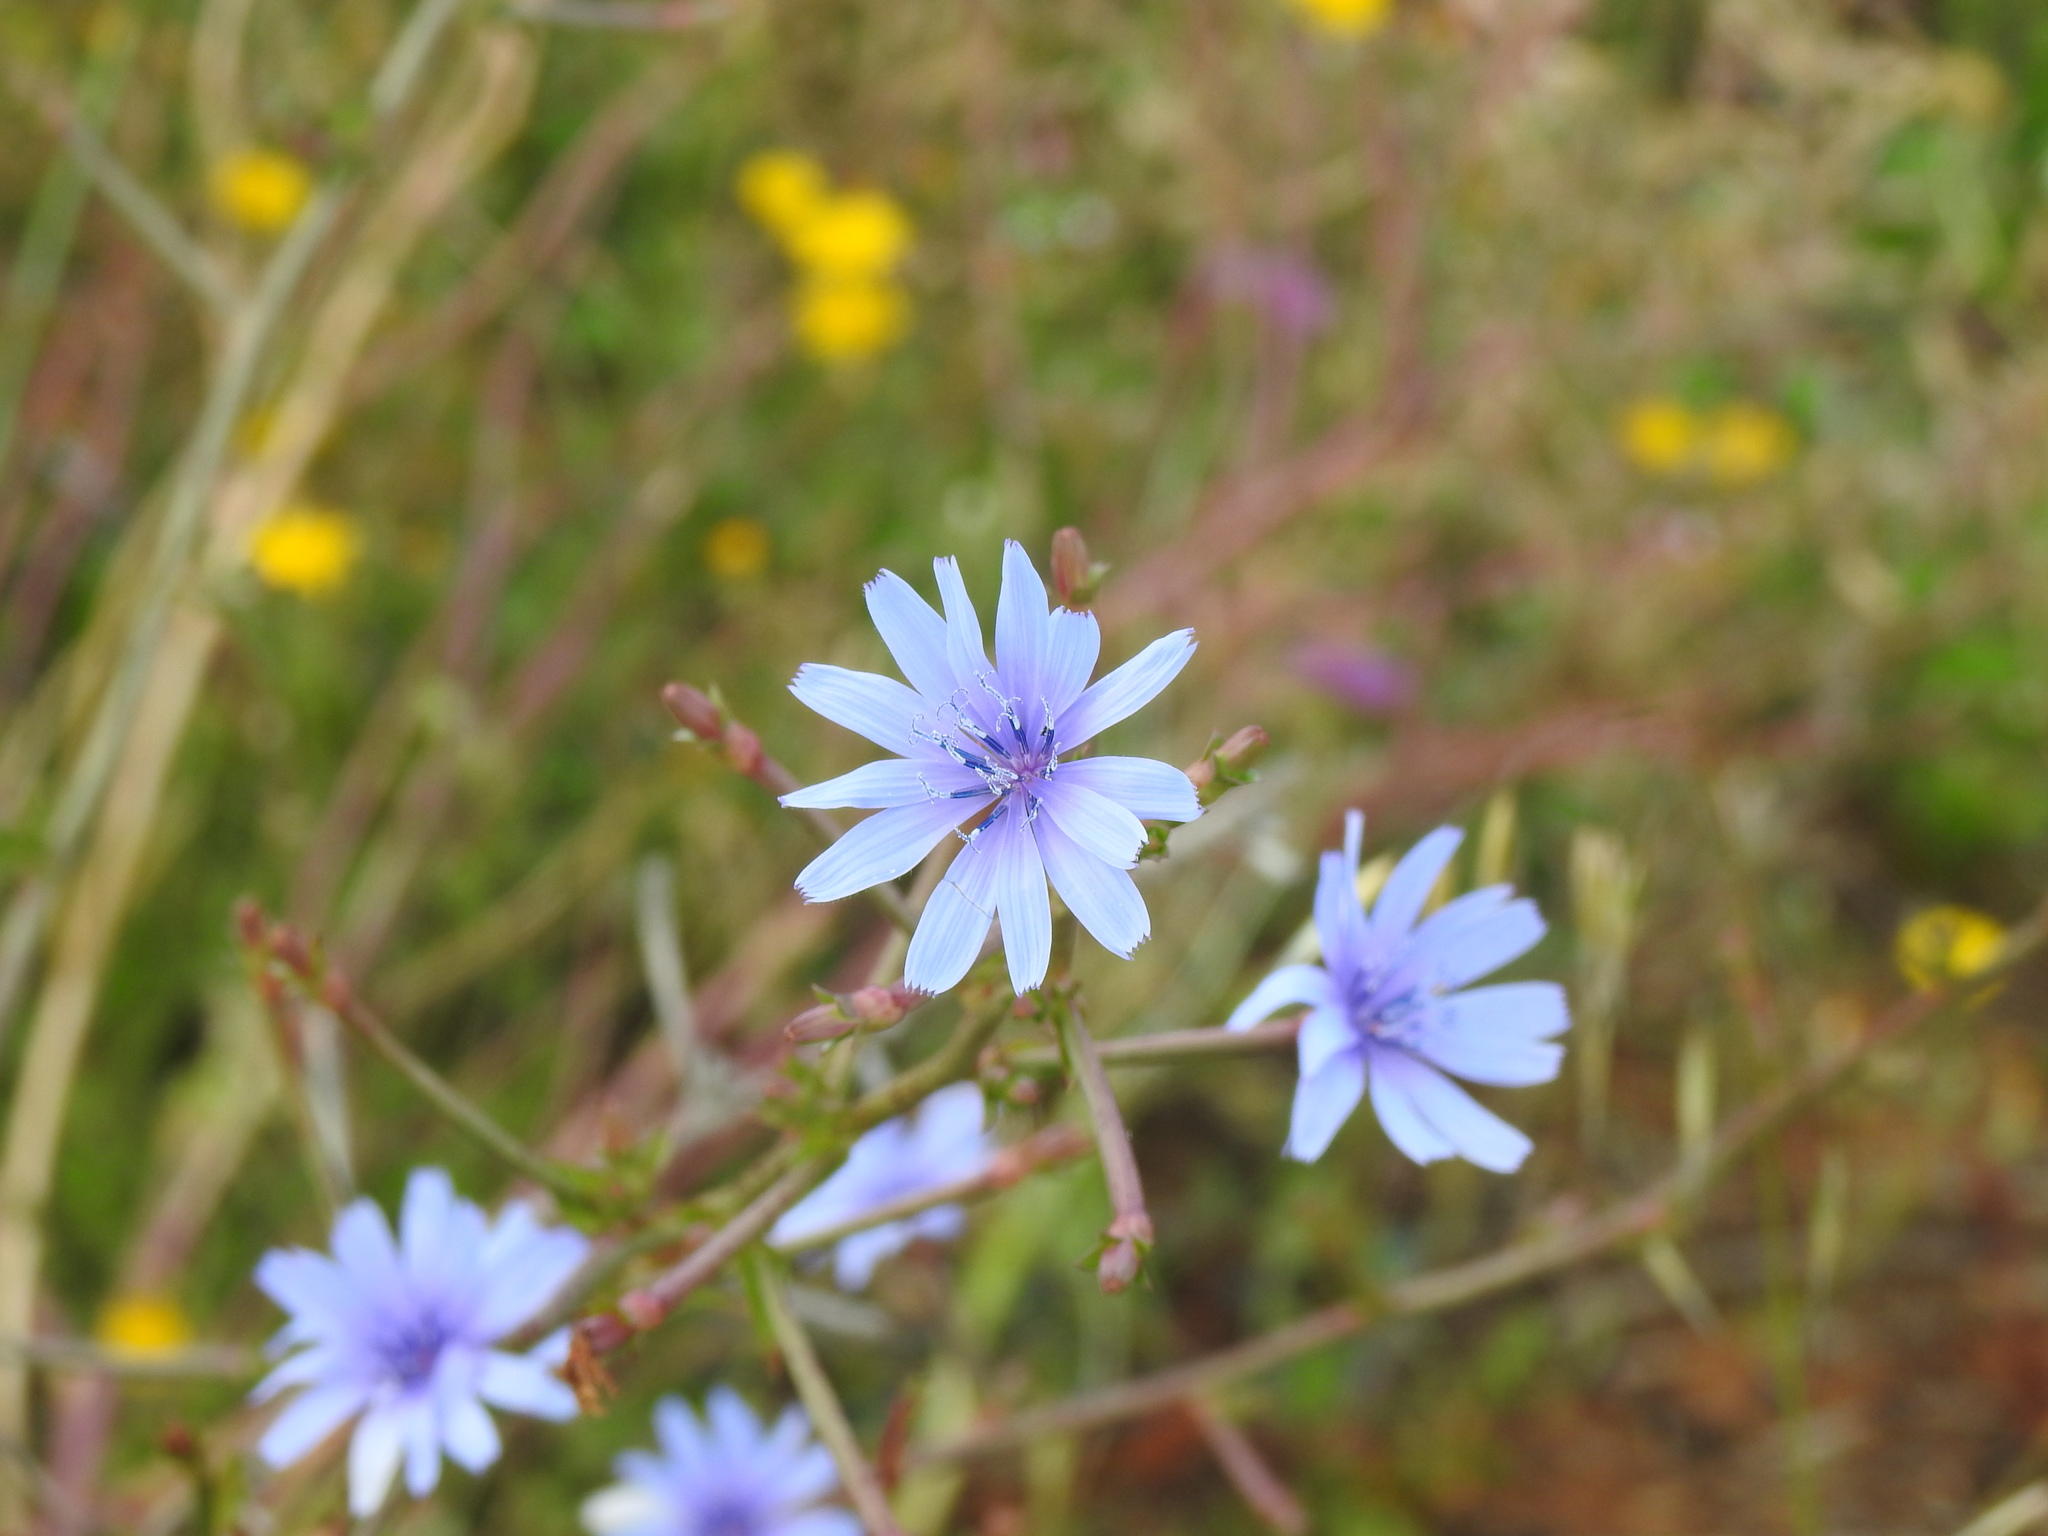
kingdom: Plantae
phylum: Tracheophyta
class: Magnoliopsida
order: Asterales
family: Asteraceae
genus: Cichorium
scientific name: Cichorium intybus
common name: Chicory
